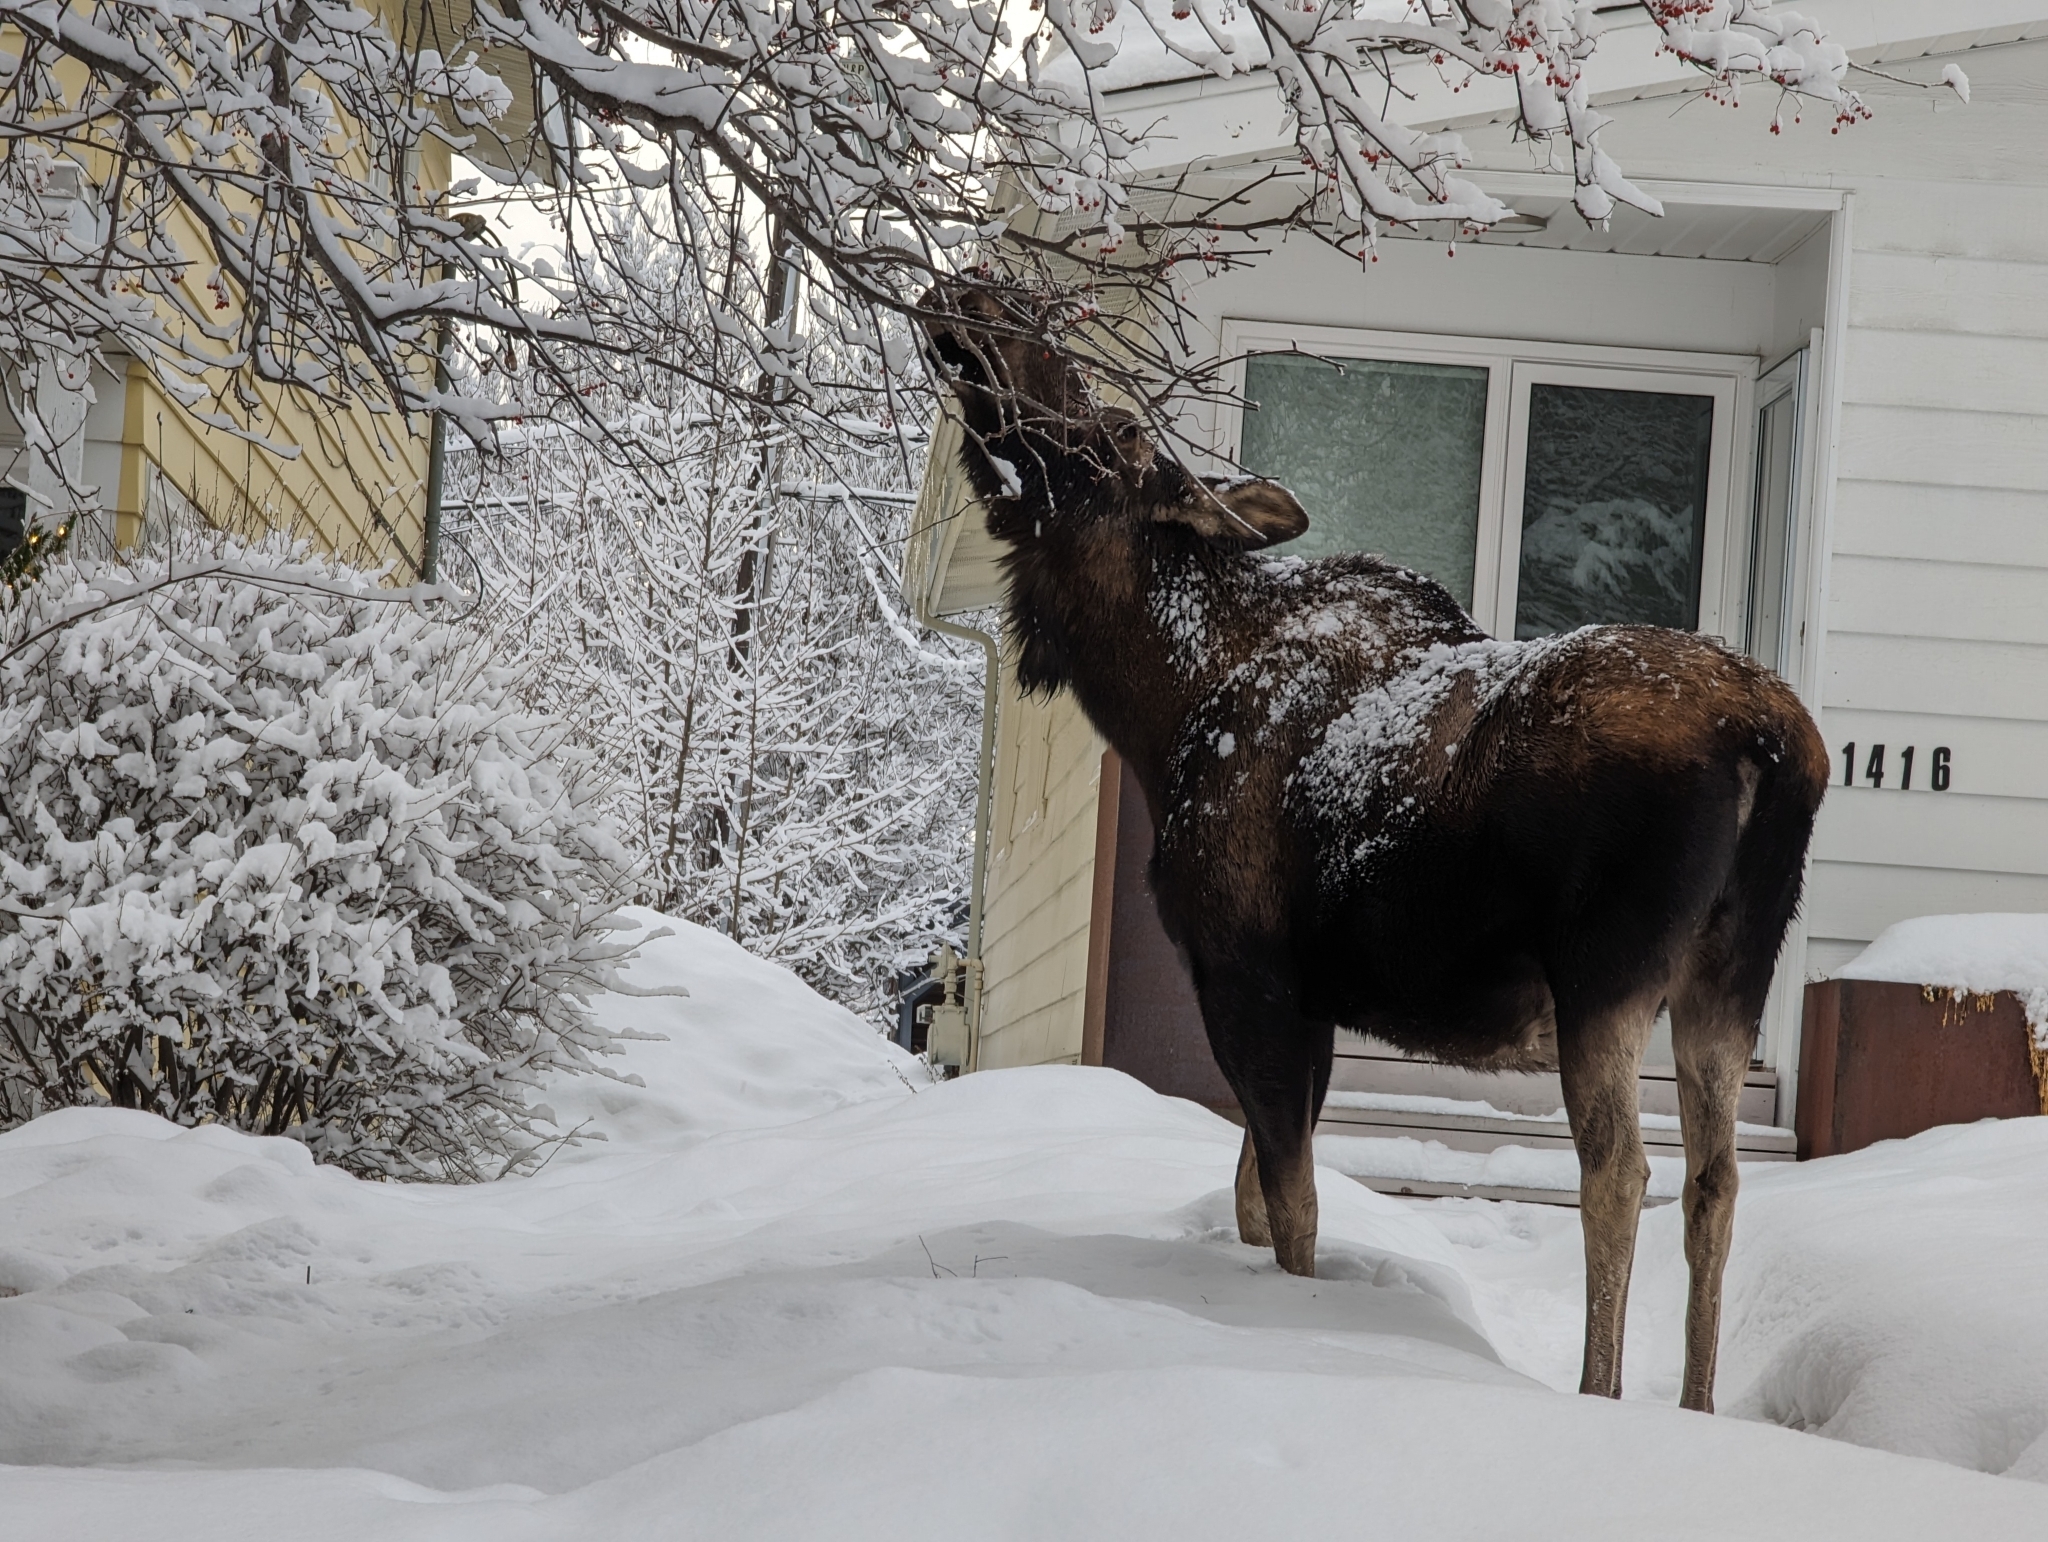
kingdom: Animalia
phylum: Chordata
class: Mammalia
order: Artiodactyla
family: Cervidae
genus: Alces
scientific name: Alces alces
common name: Moose
